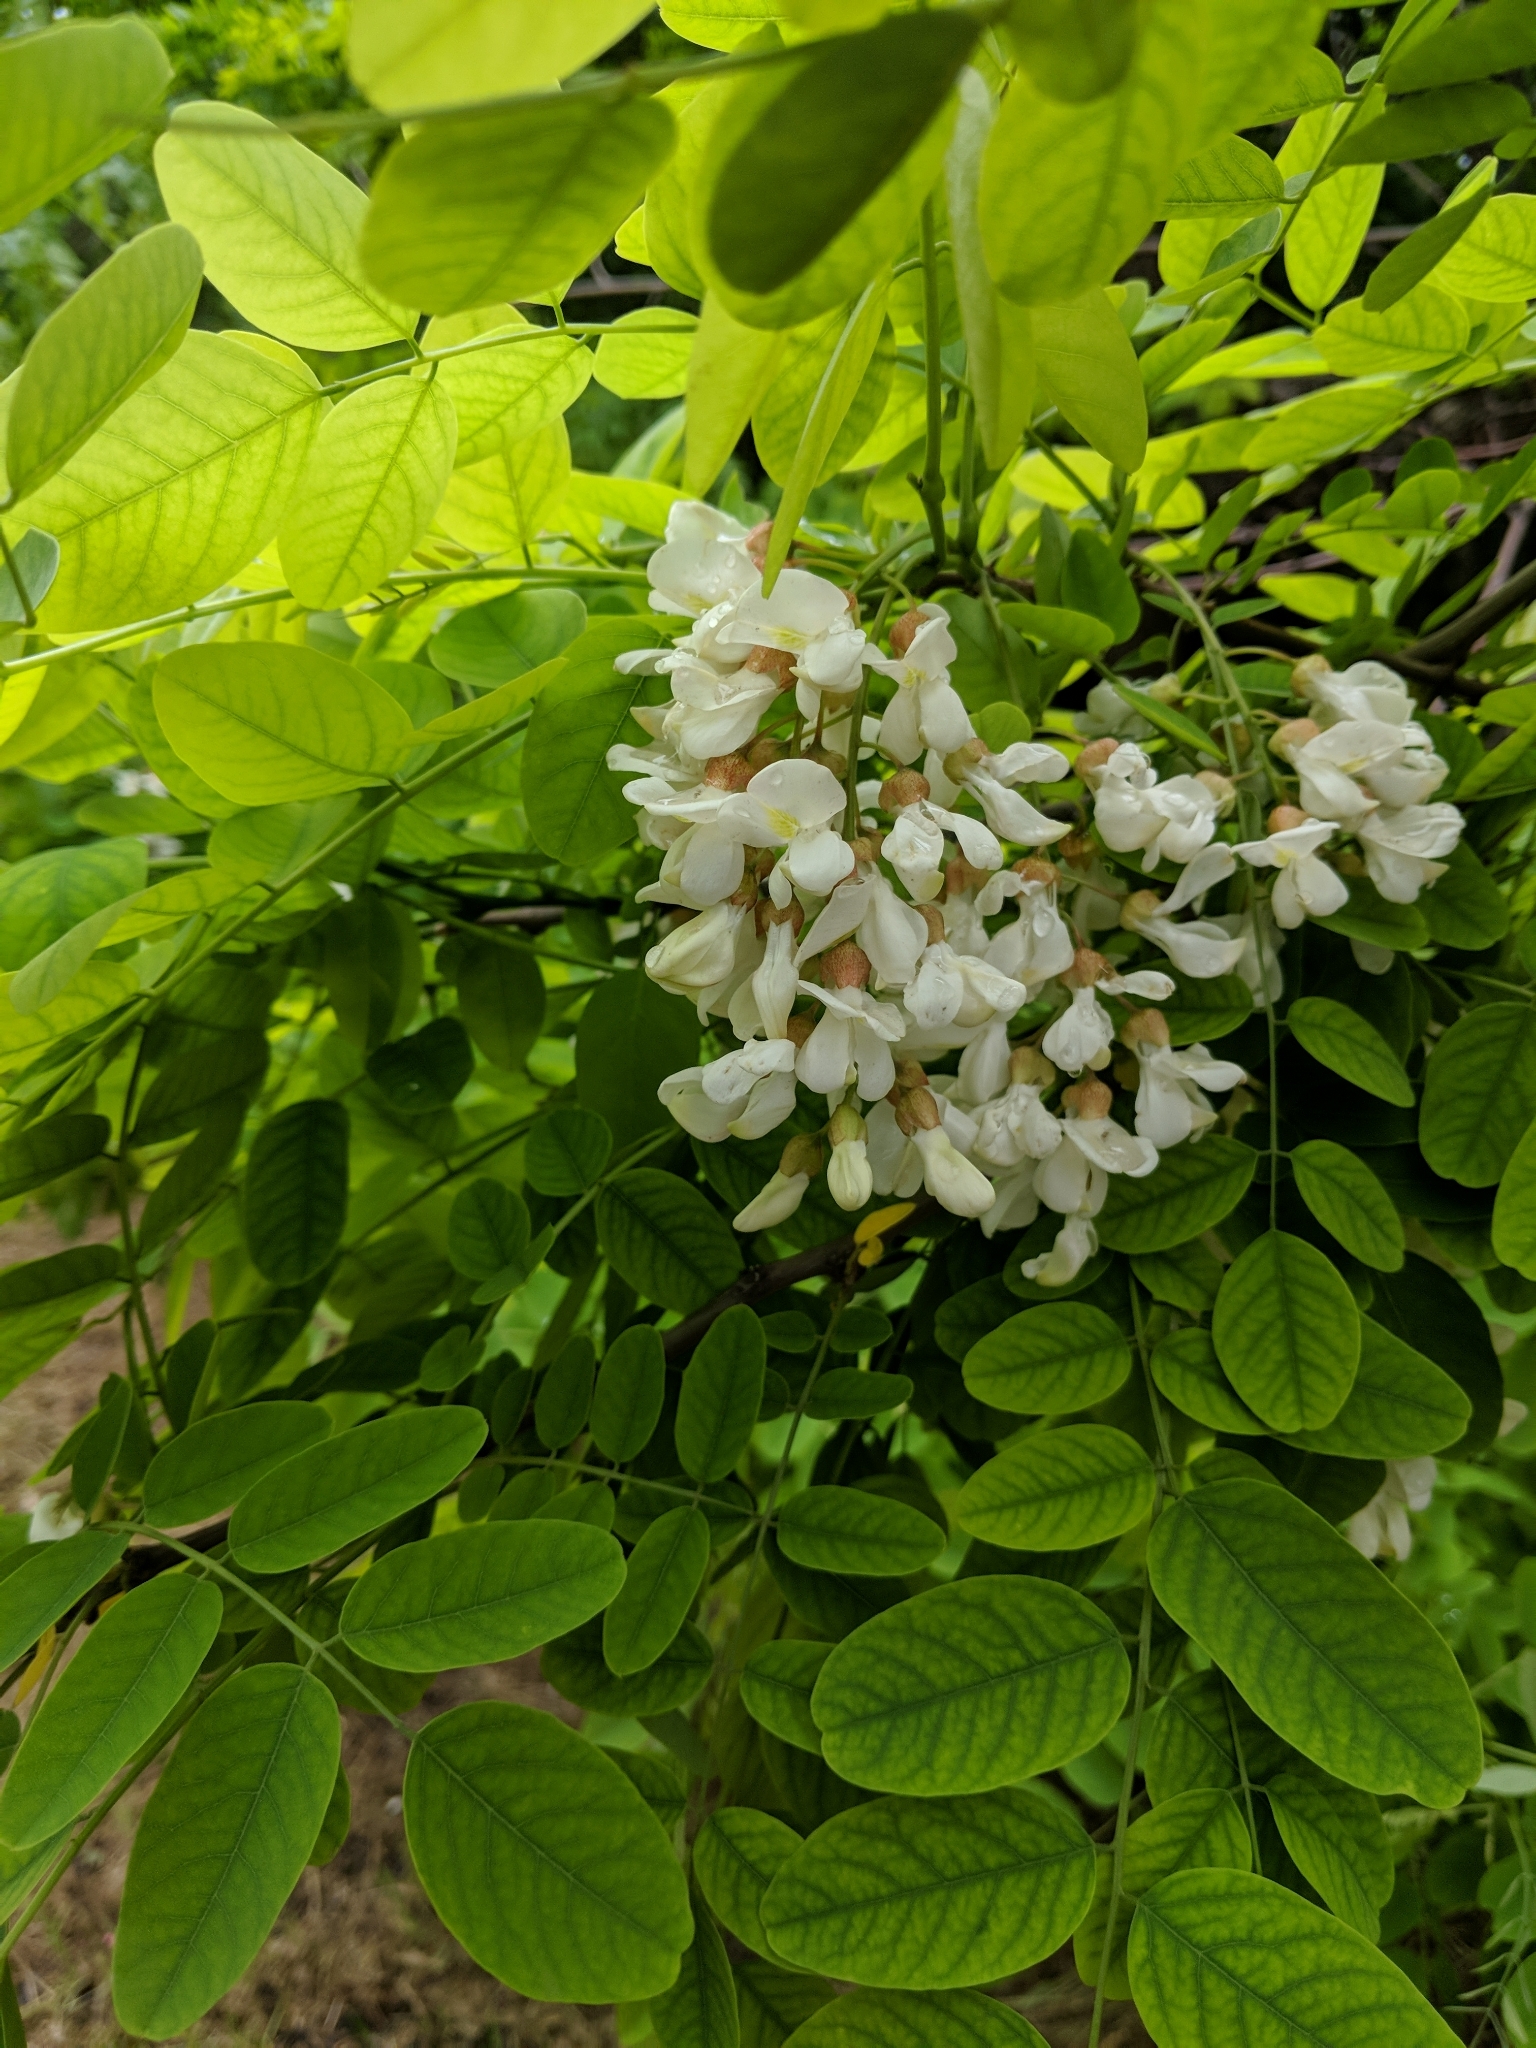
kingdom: Plantae
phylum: Tracheophyta
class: Magnoliopsida
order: Fabales
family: Fabaceae
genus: Robinia
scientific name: Robinia pseudoacacia
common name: Black locust
